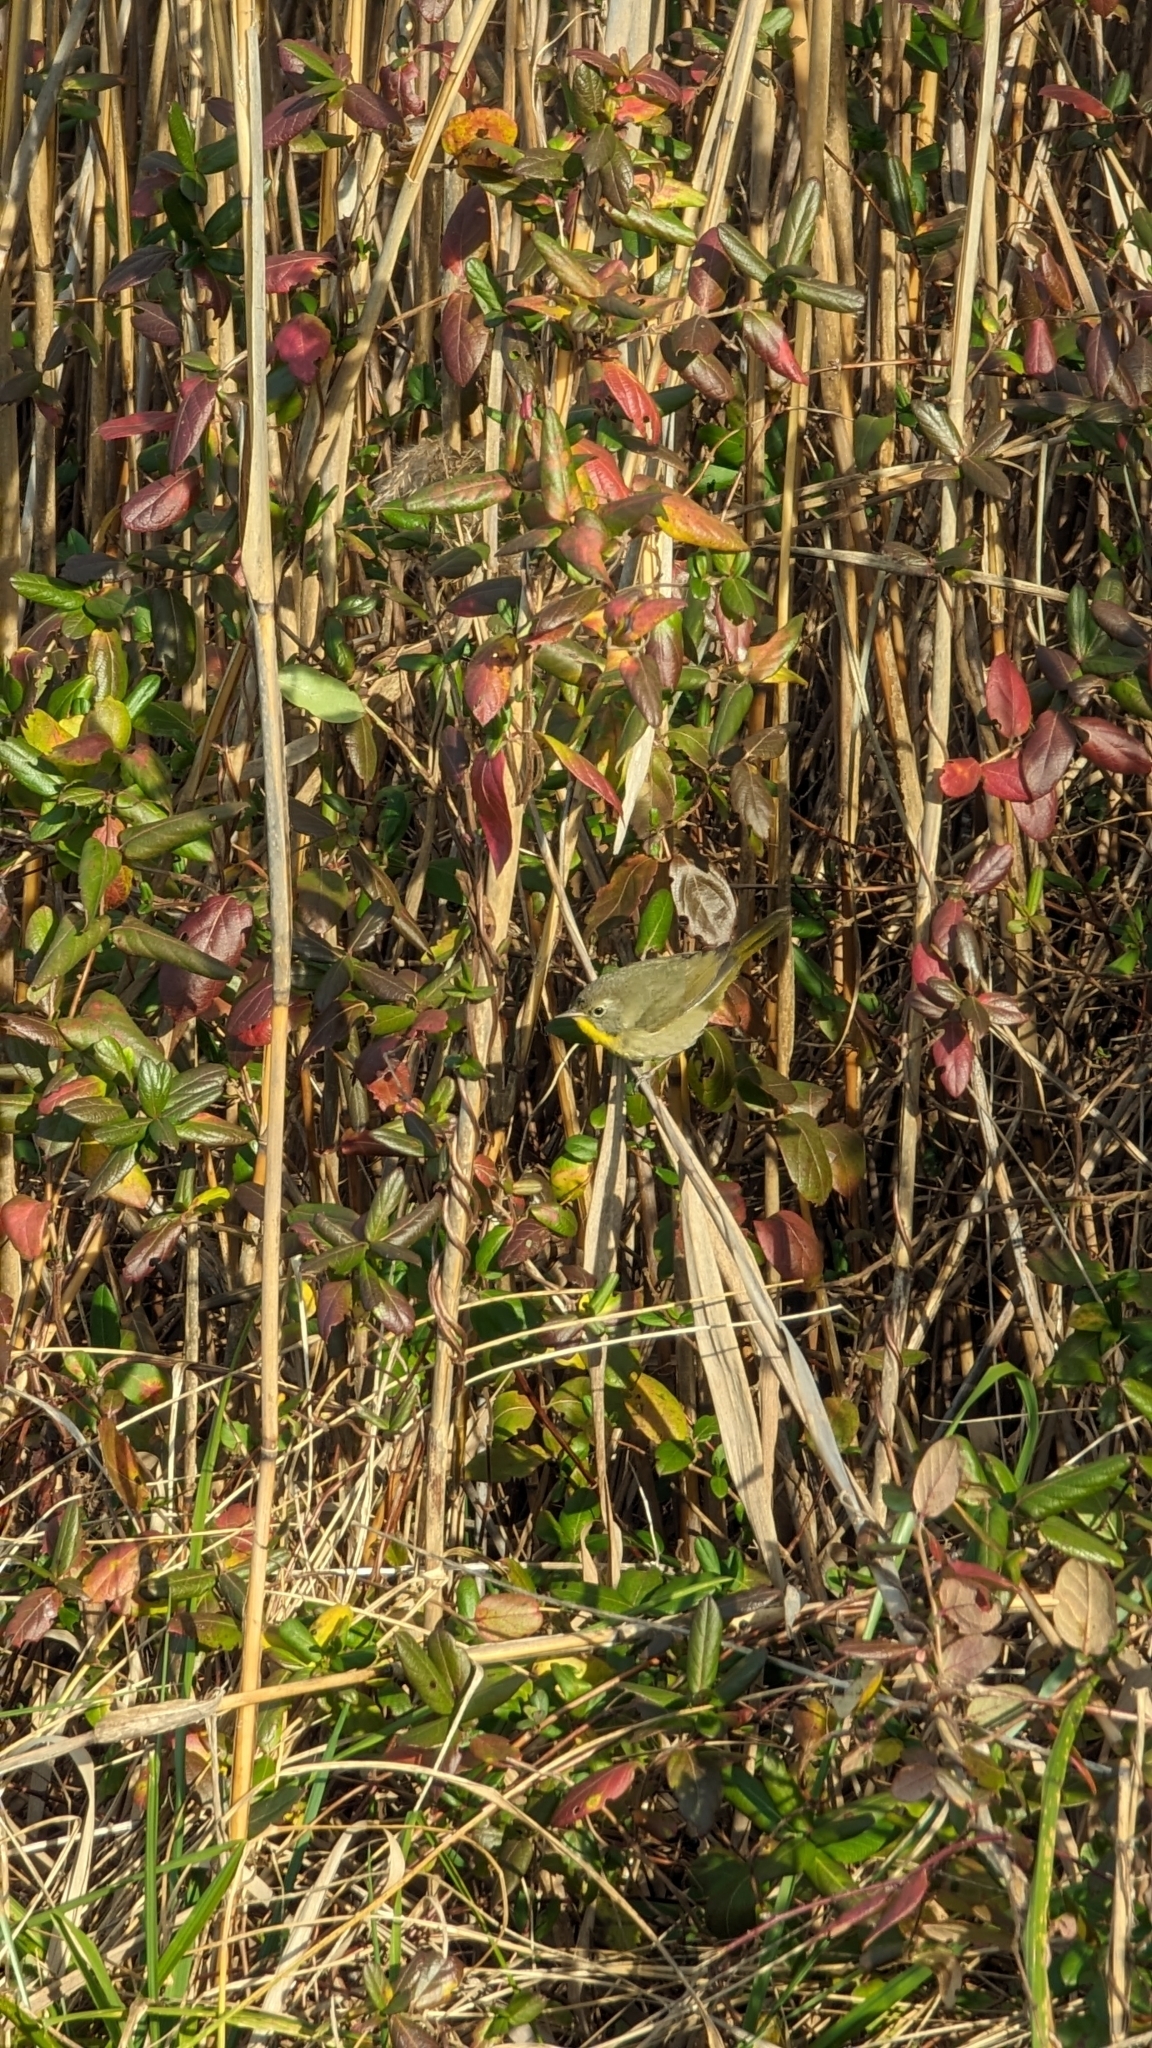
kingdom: Animalia
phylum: Chordata
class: Aves
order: Passeriformes
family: Parulidae
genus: Geothlypis
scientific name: Geothlypis trichas
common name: Common yellowthroat
